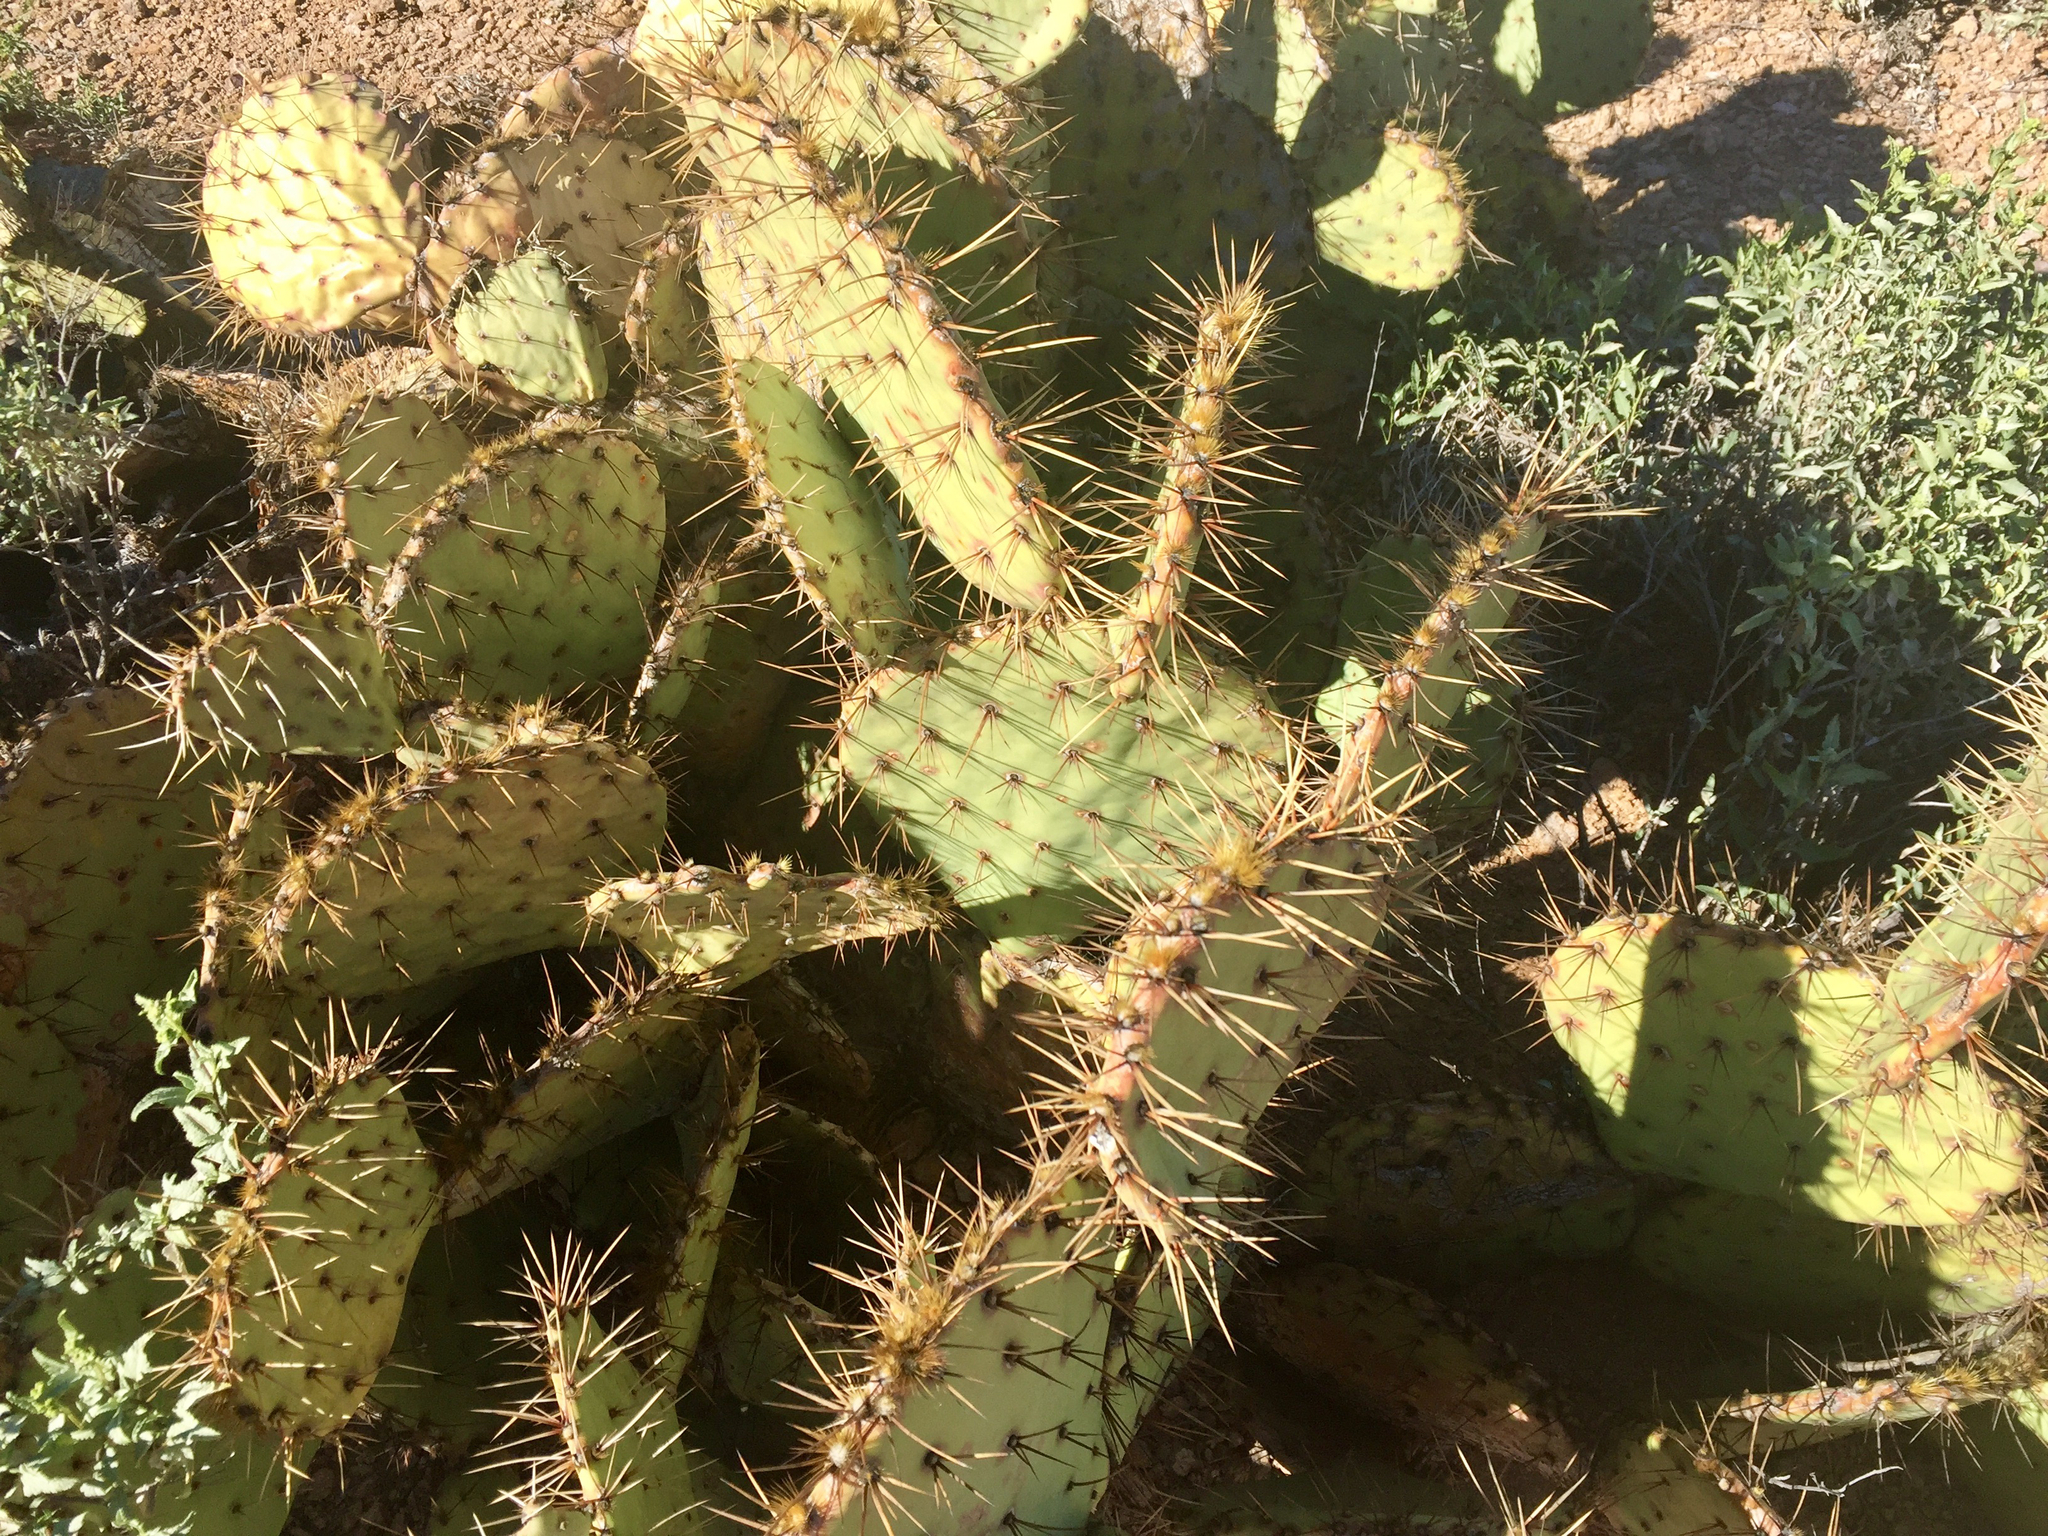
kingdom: Plantae
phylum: Tracheophyta
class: Magnoliopsida
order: Caryophyllales
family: Cactaceae
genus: Opuntia
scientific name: Opuntia engelmannii
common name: Cactus-apple
